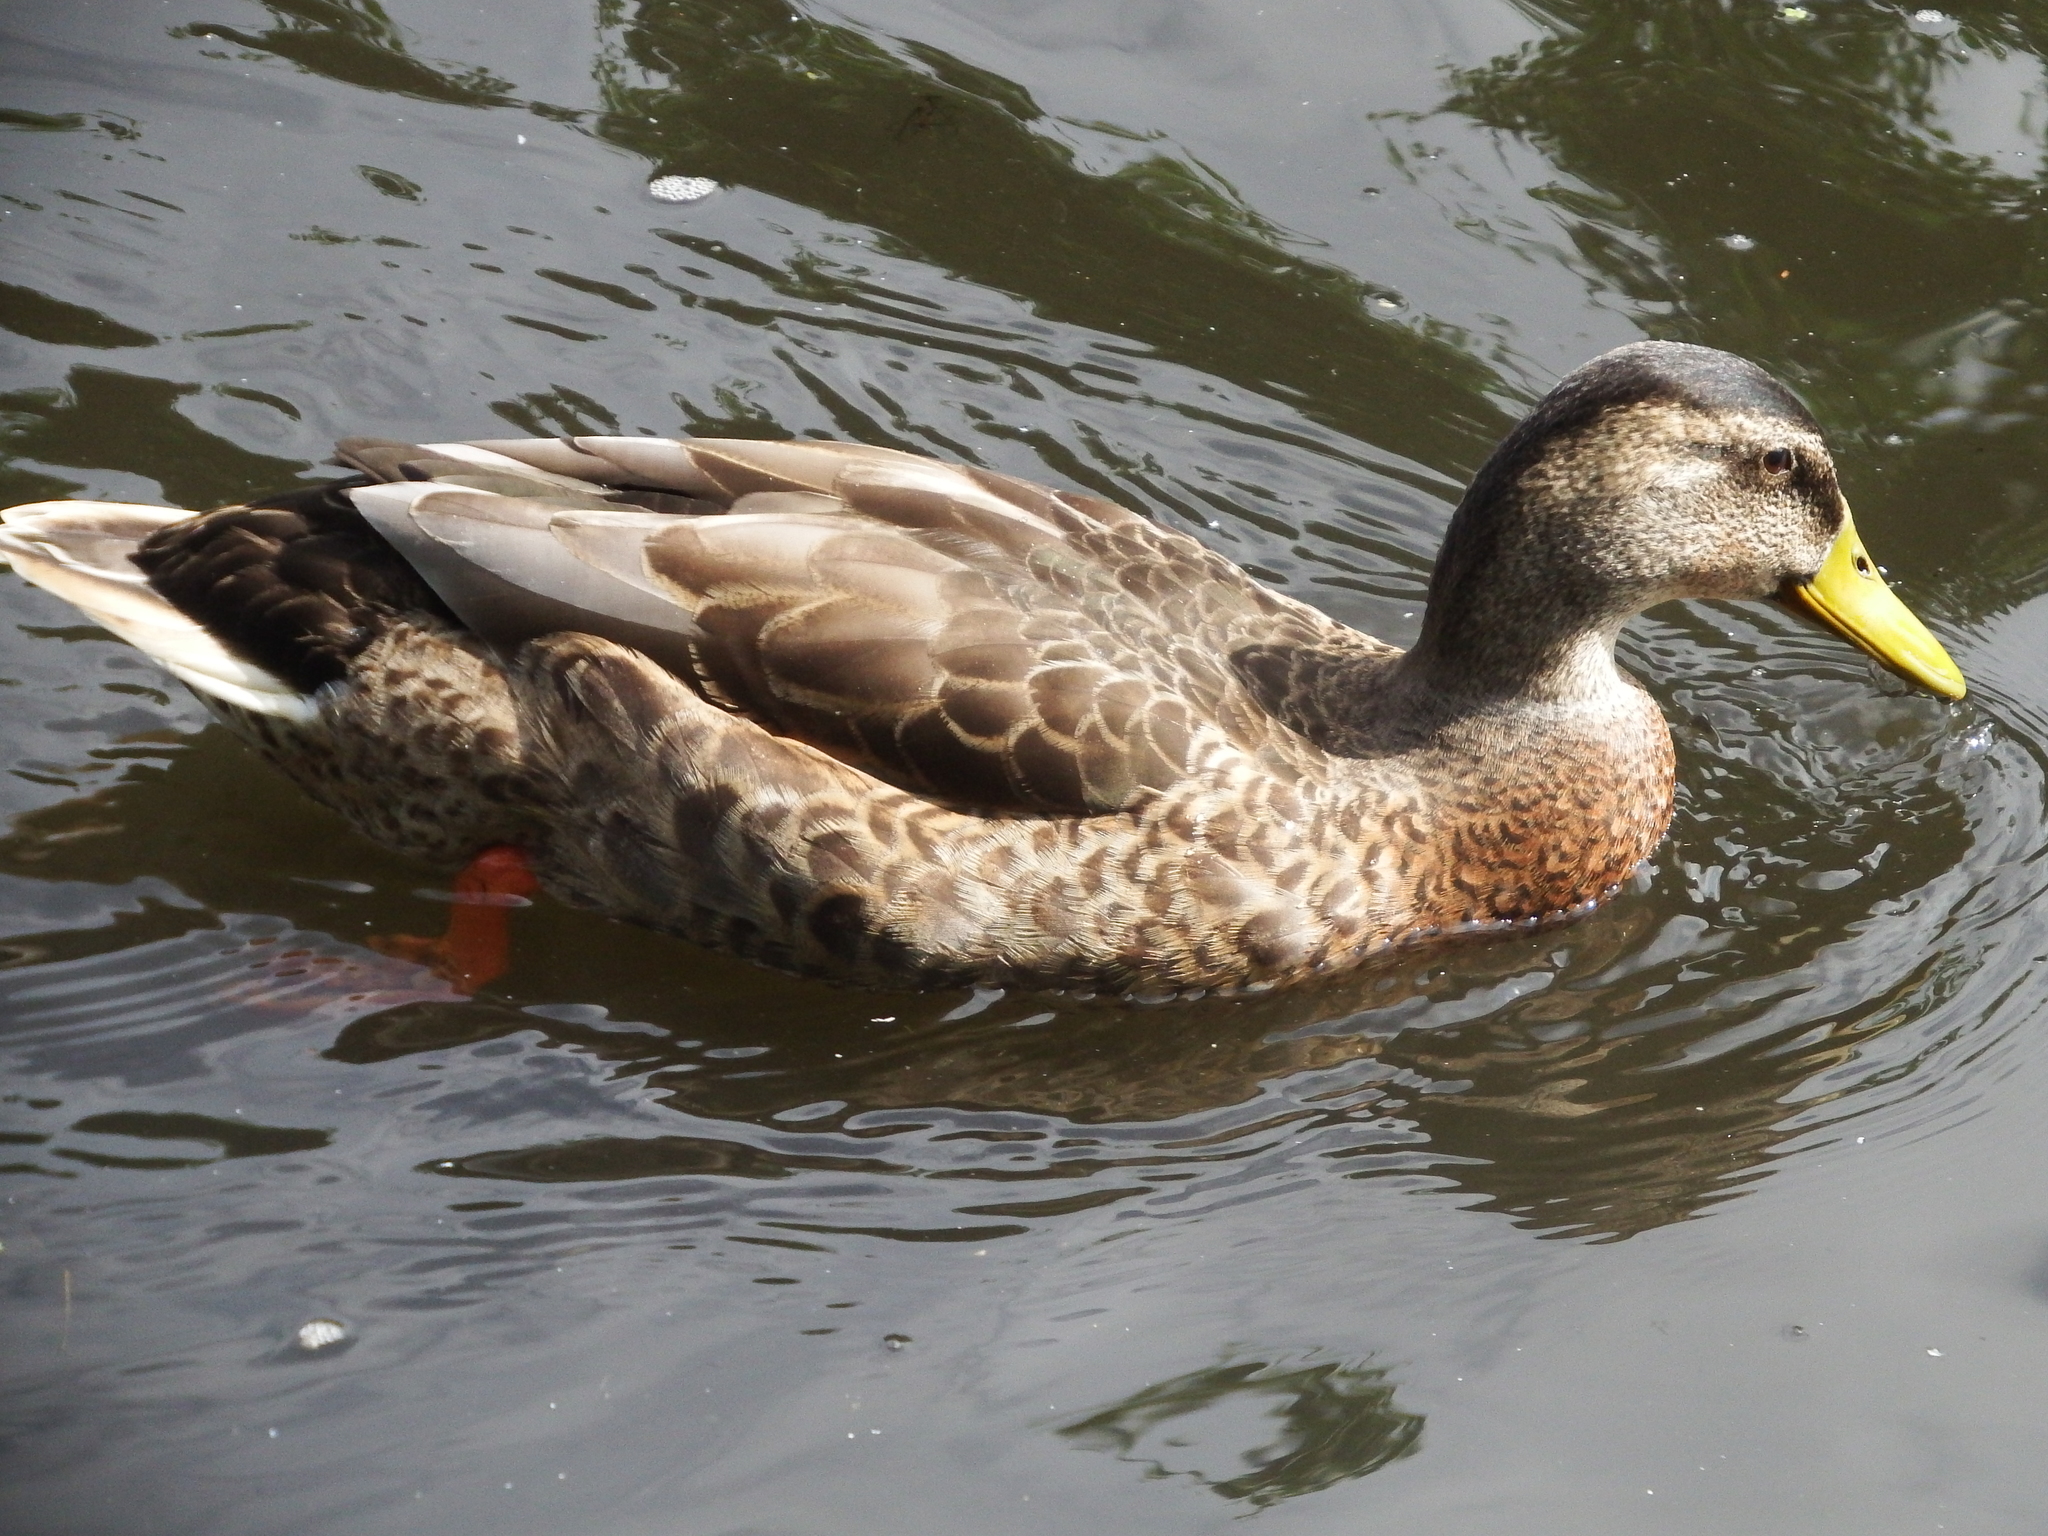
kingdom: Animalia
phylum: Chordata
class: Aves
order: Anseriformes
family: Anatidae
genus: Anas
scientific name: Anas platyrhynchos
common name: Mallard
